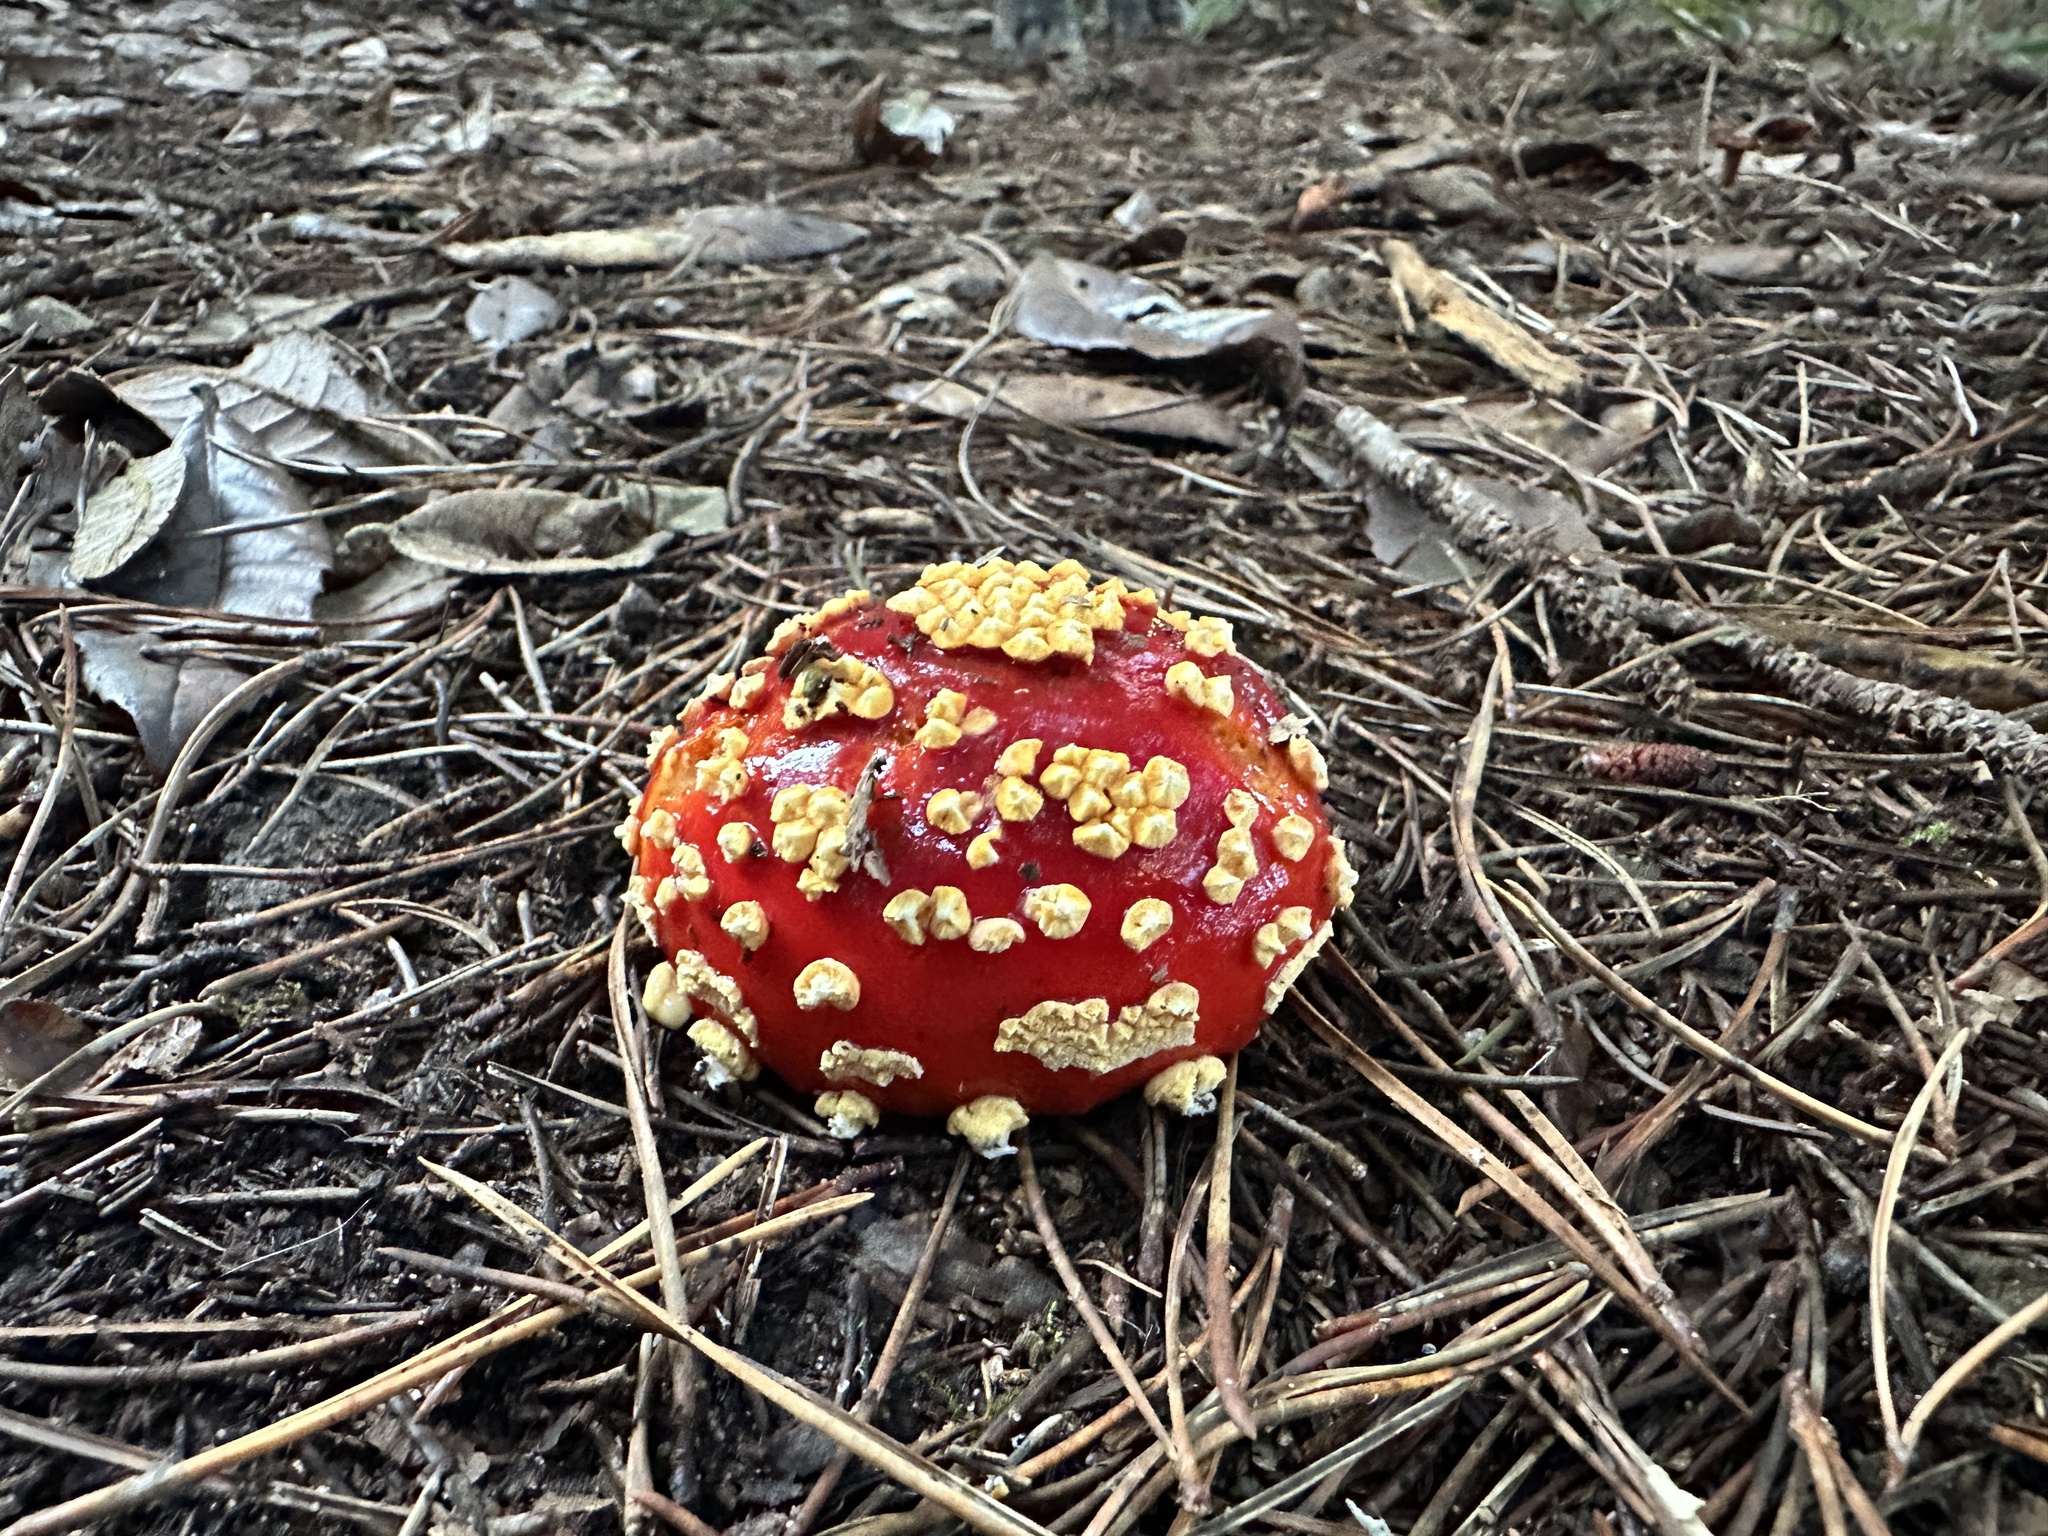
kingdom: Fungi
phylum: Basidiomycota
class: Agaricomycetes
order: Agaricales
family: Amanitaceae
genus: Amanita
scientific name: Amanita muscaria
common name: Fly agaric
